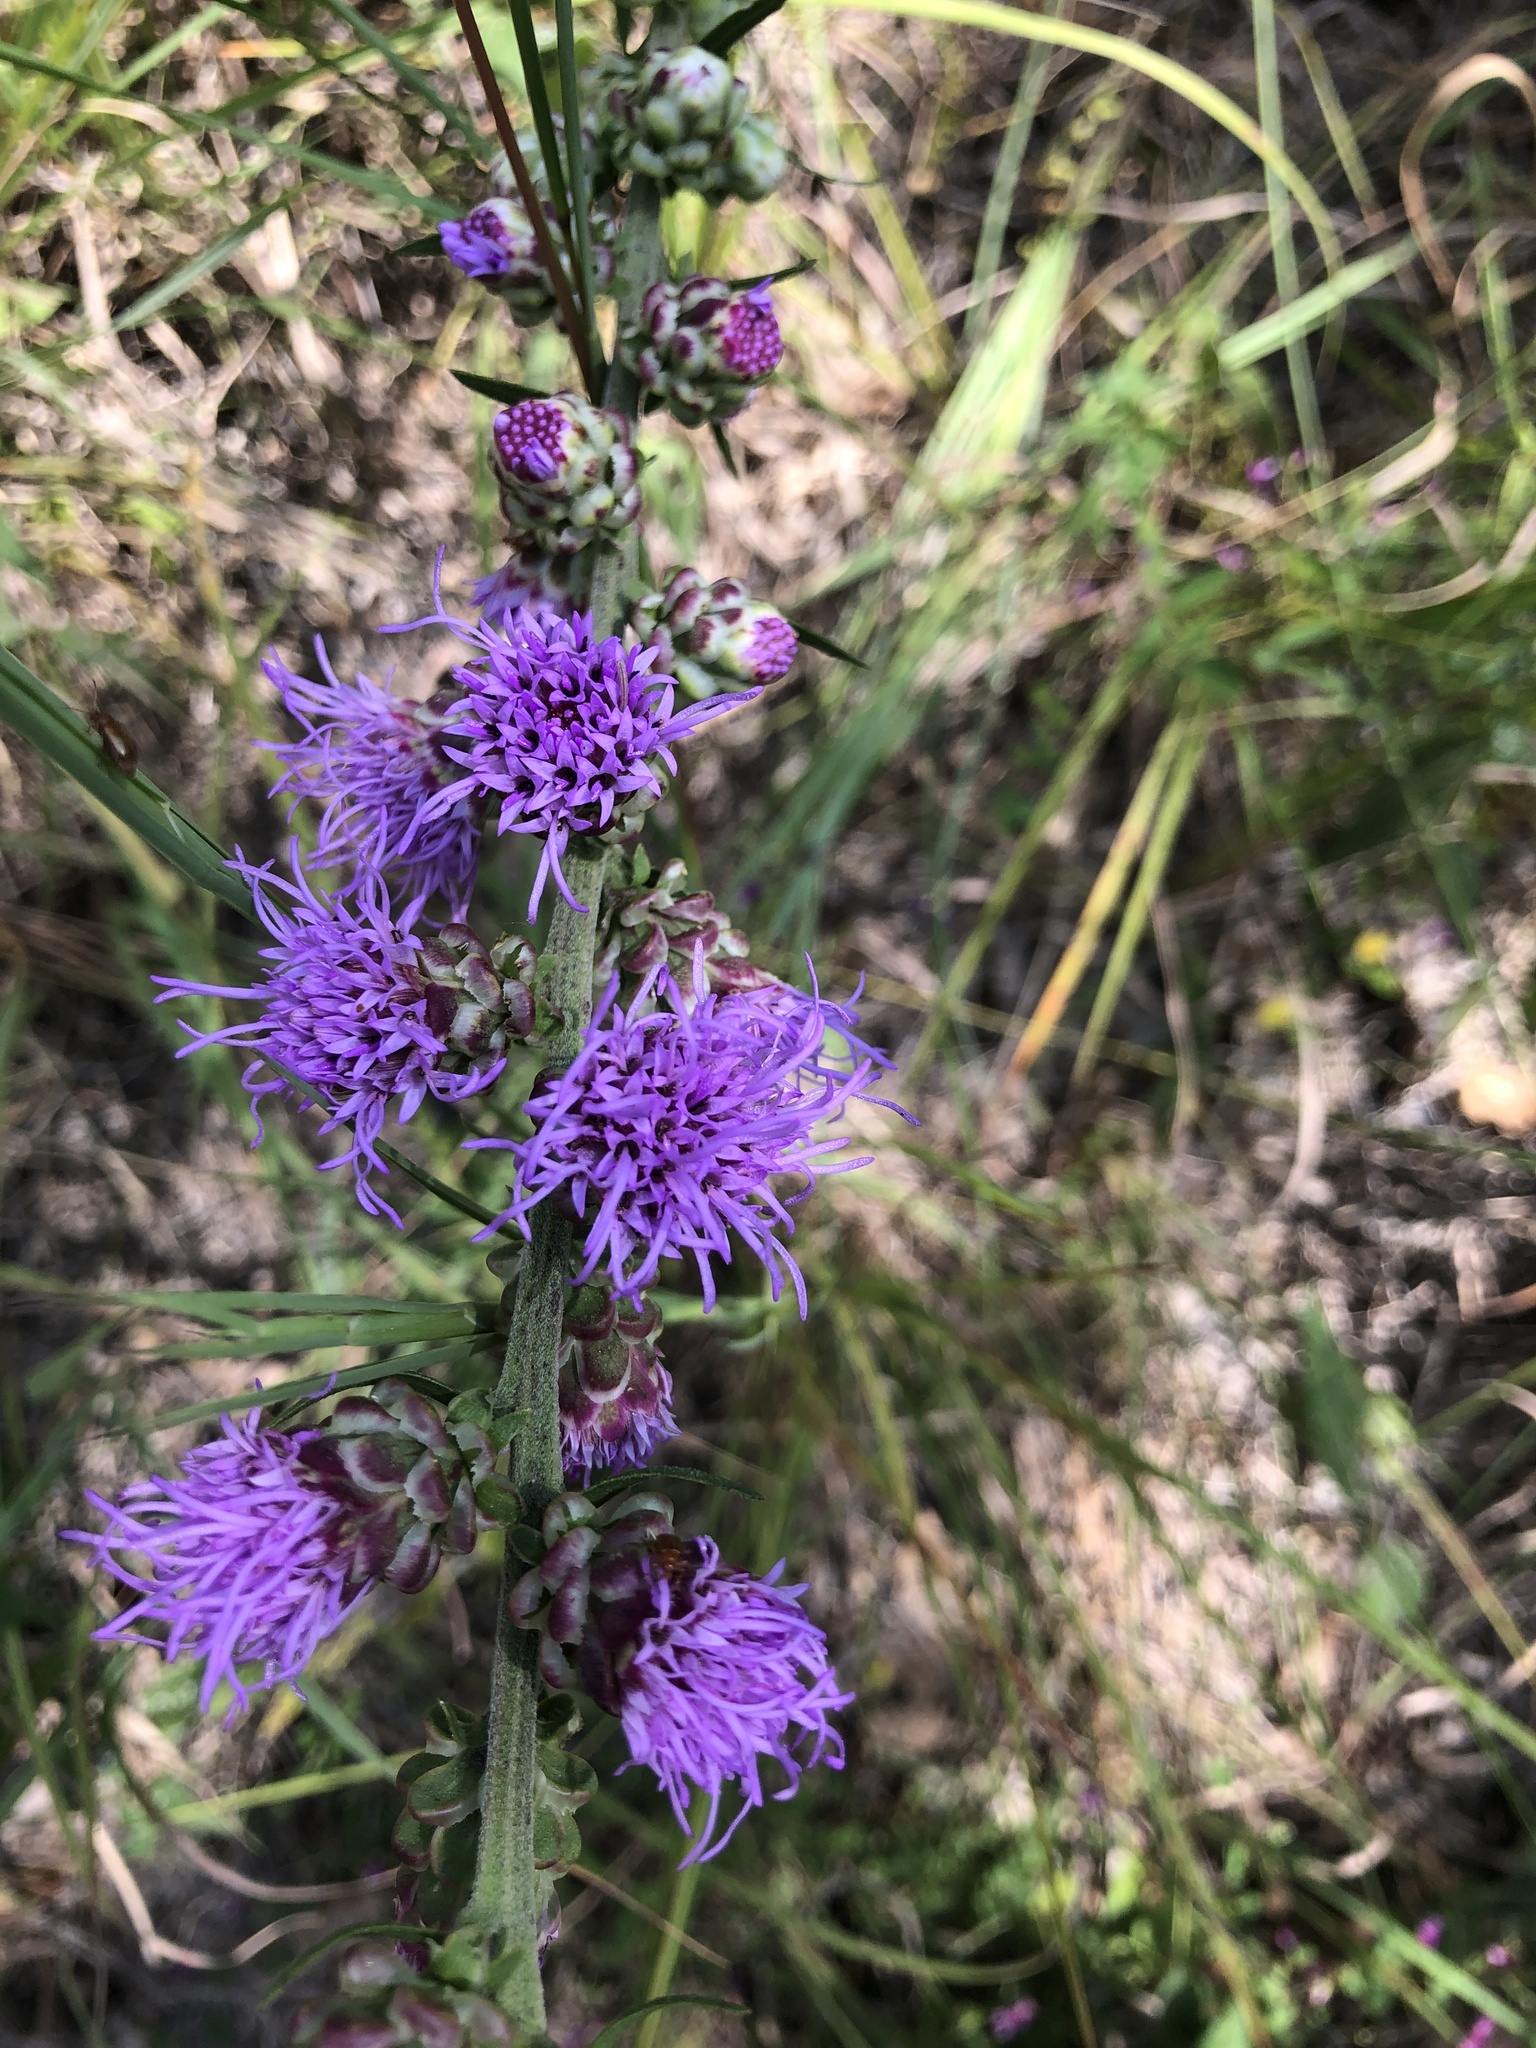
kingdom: Plantae
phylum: Tracheophyta
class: Magnoliopsida
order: Asterales
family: Asteraceae
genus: Liatris
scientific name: Liatris aspera
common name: Lacerate blazing-star
